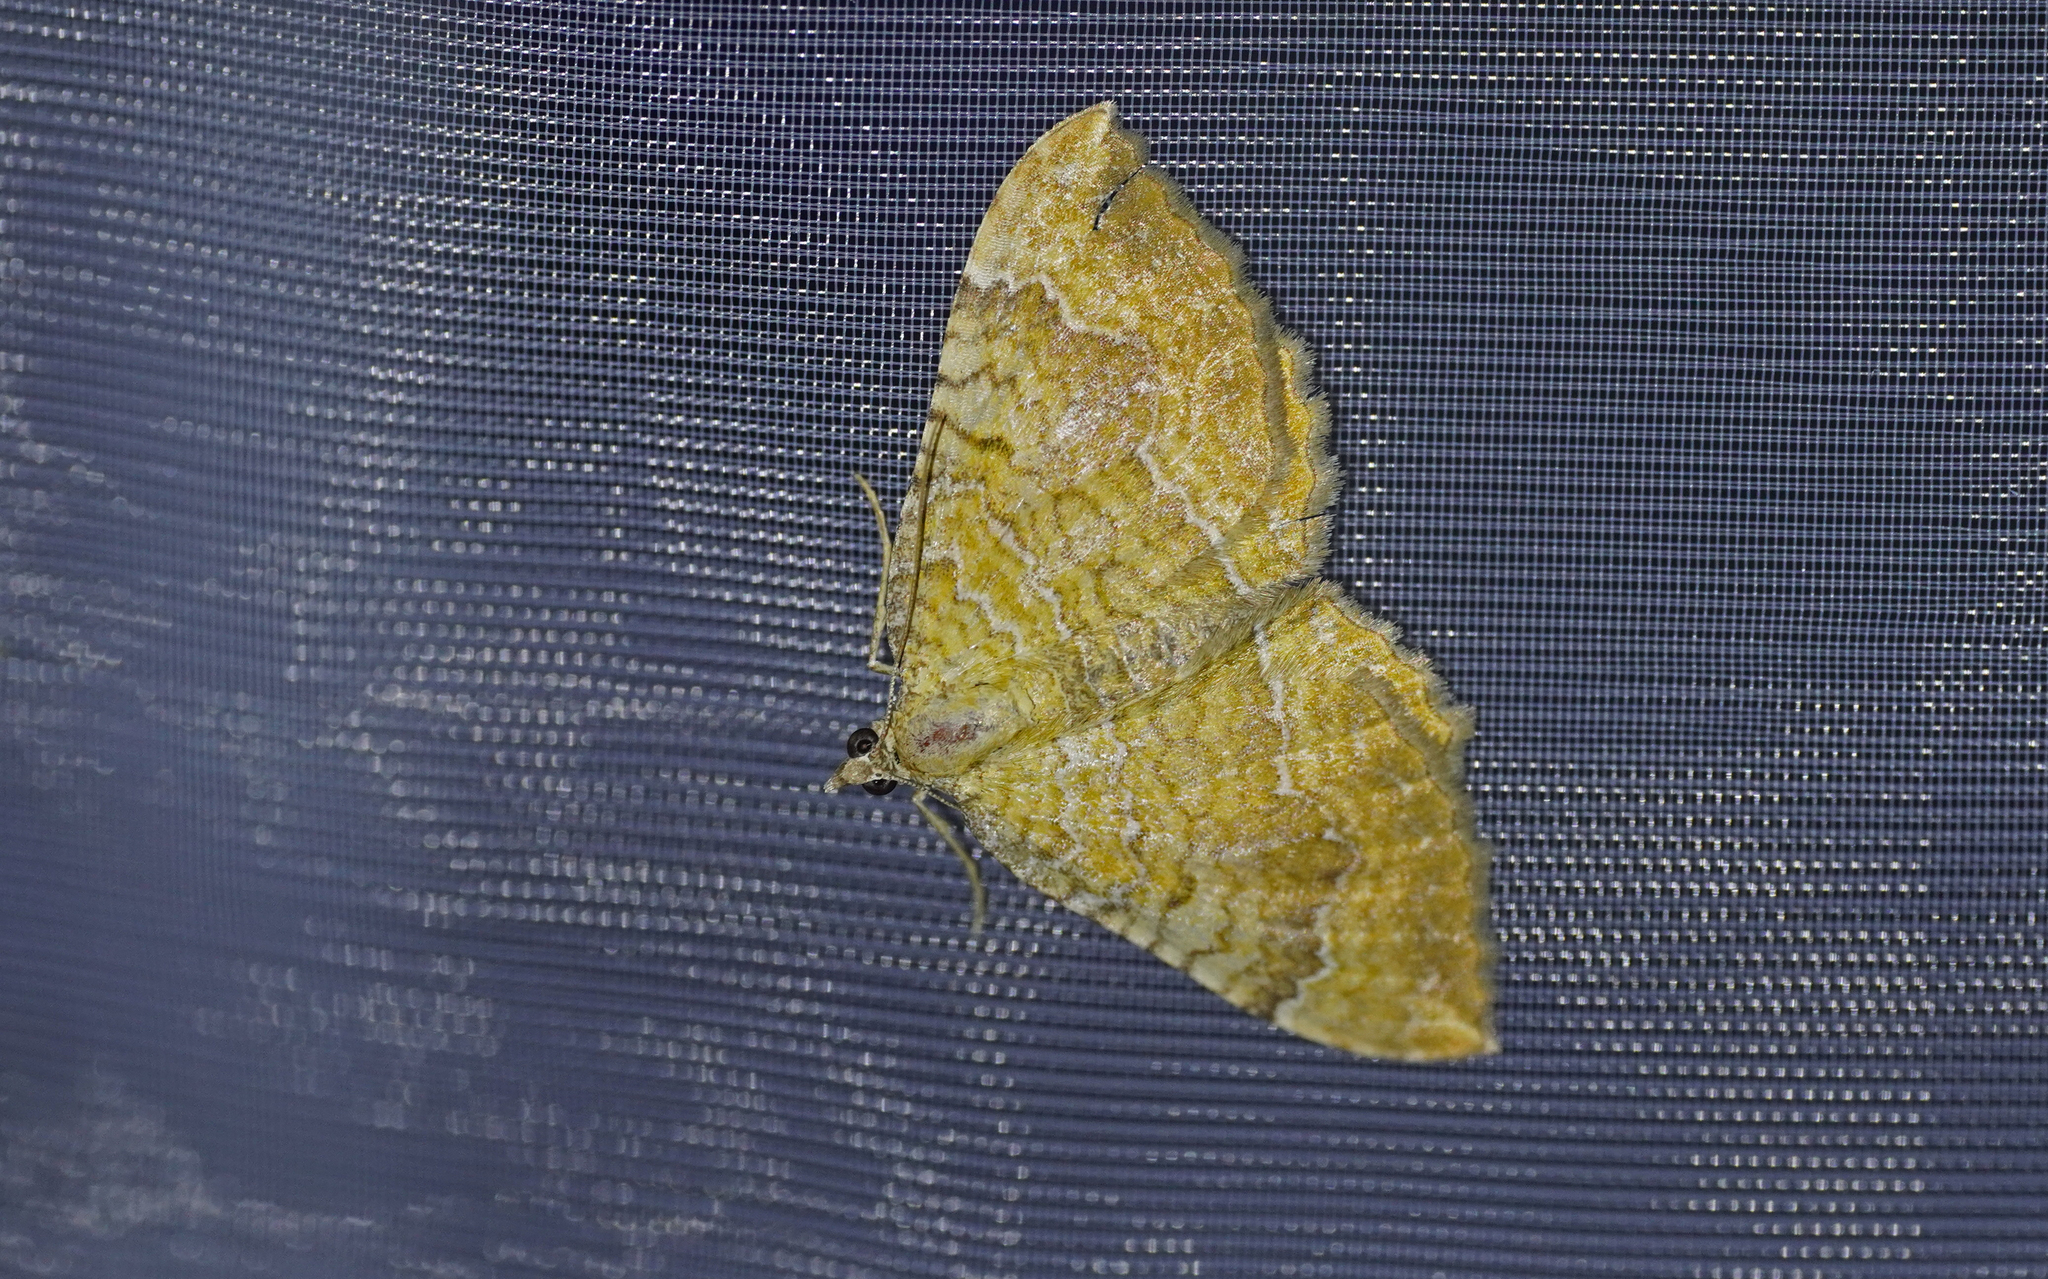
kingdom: Animalia
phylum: Arthropoda
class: Insecta
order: Lepidoptera
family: Geometridae
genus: Camptogramma
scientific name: Camptogramma bilineata
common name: Yellow shell
